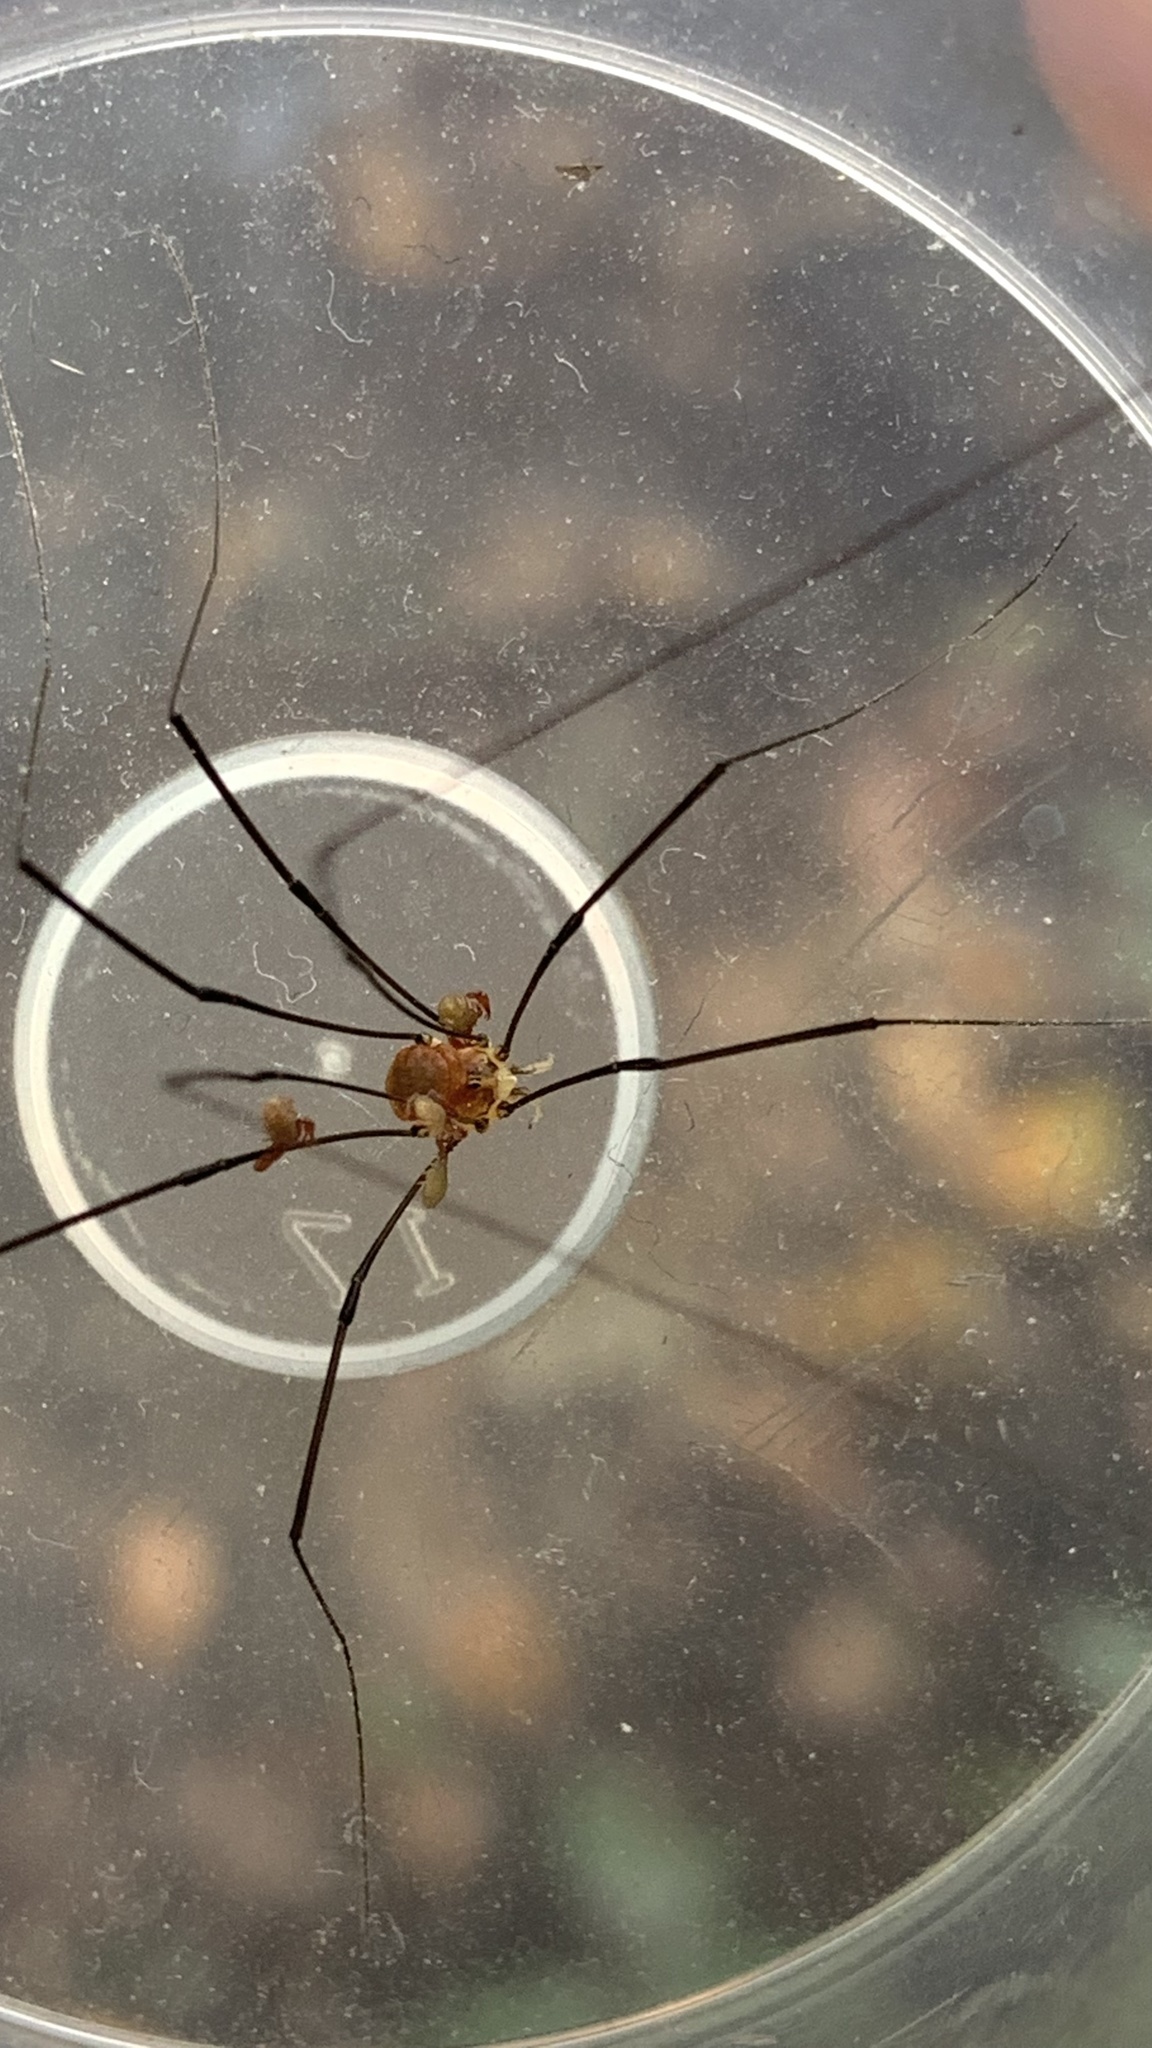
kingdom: Animalia
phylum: Arthropoda
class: Arachnida
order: Opiliones
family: Sclerosomatidae
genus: Leiobunum
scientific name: Leiobunum blackwalli
